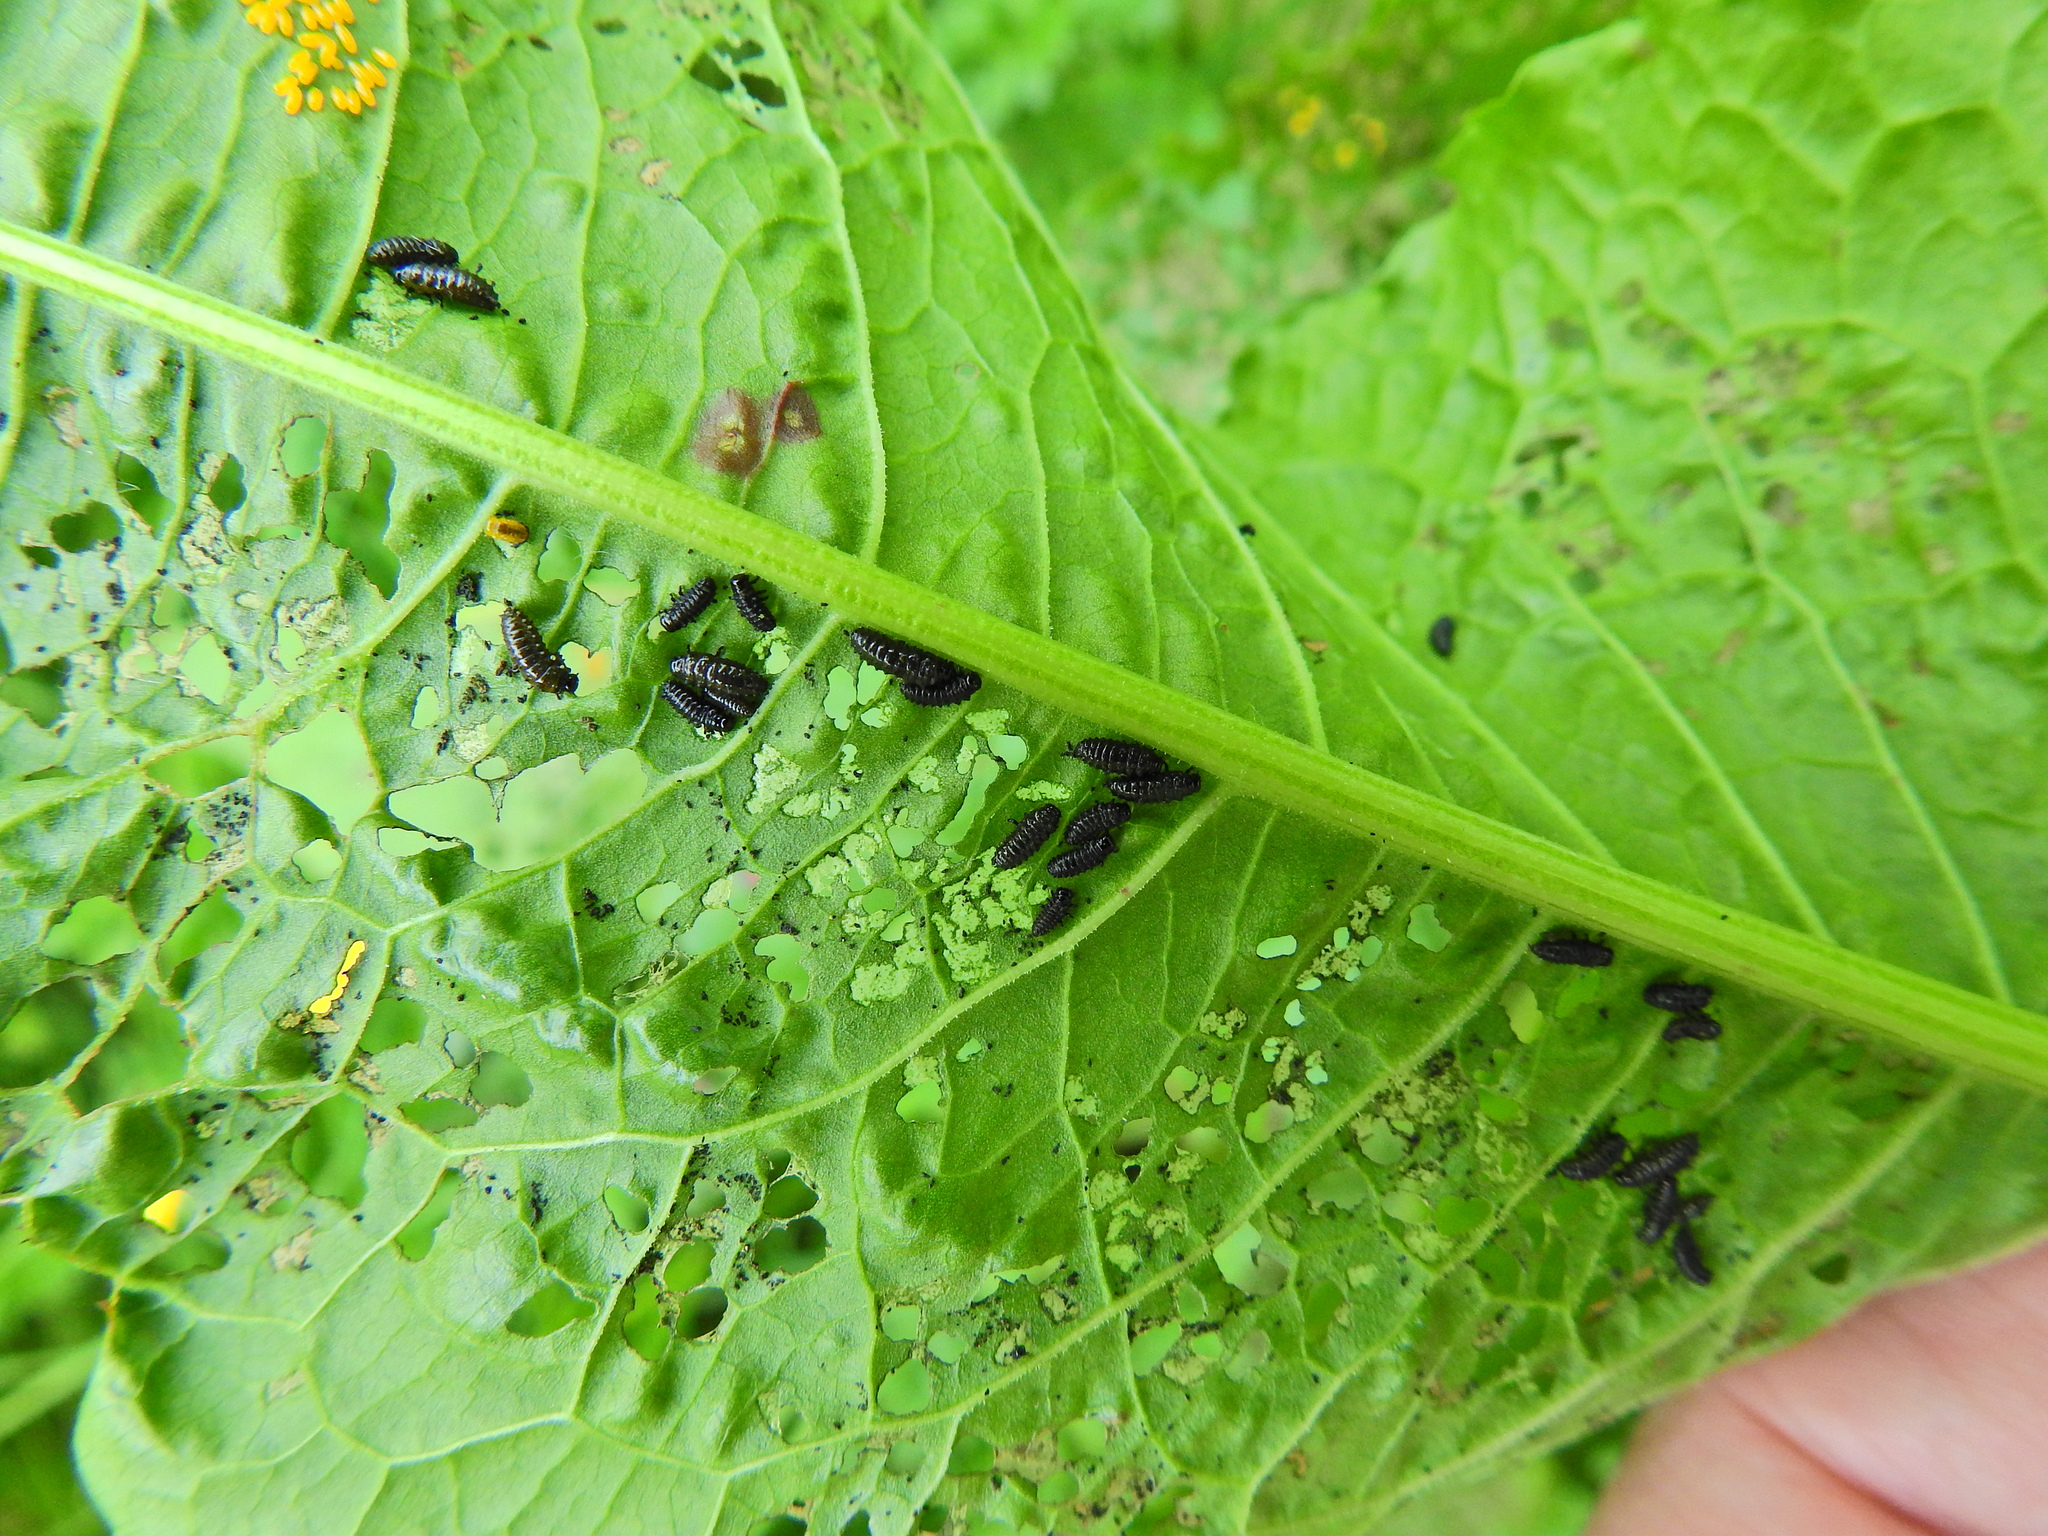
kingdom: Animalia
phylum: Arthropoda
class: Insecta
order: Coleoptera
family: Chrysomelidae
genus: Gastrophysa
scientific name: Gastrophysa viridula
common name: Green dock beetle
